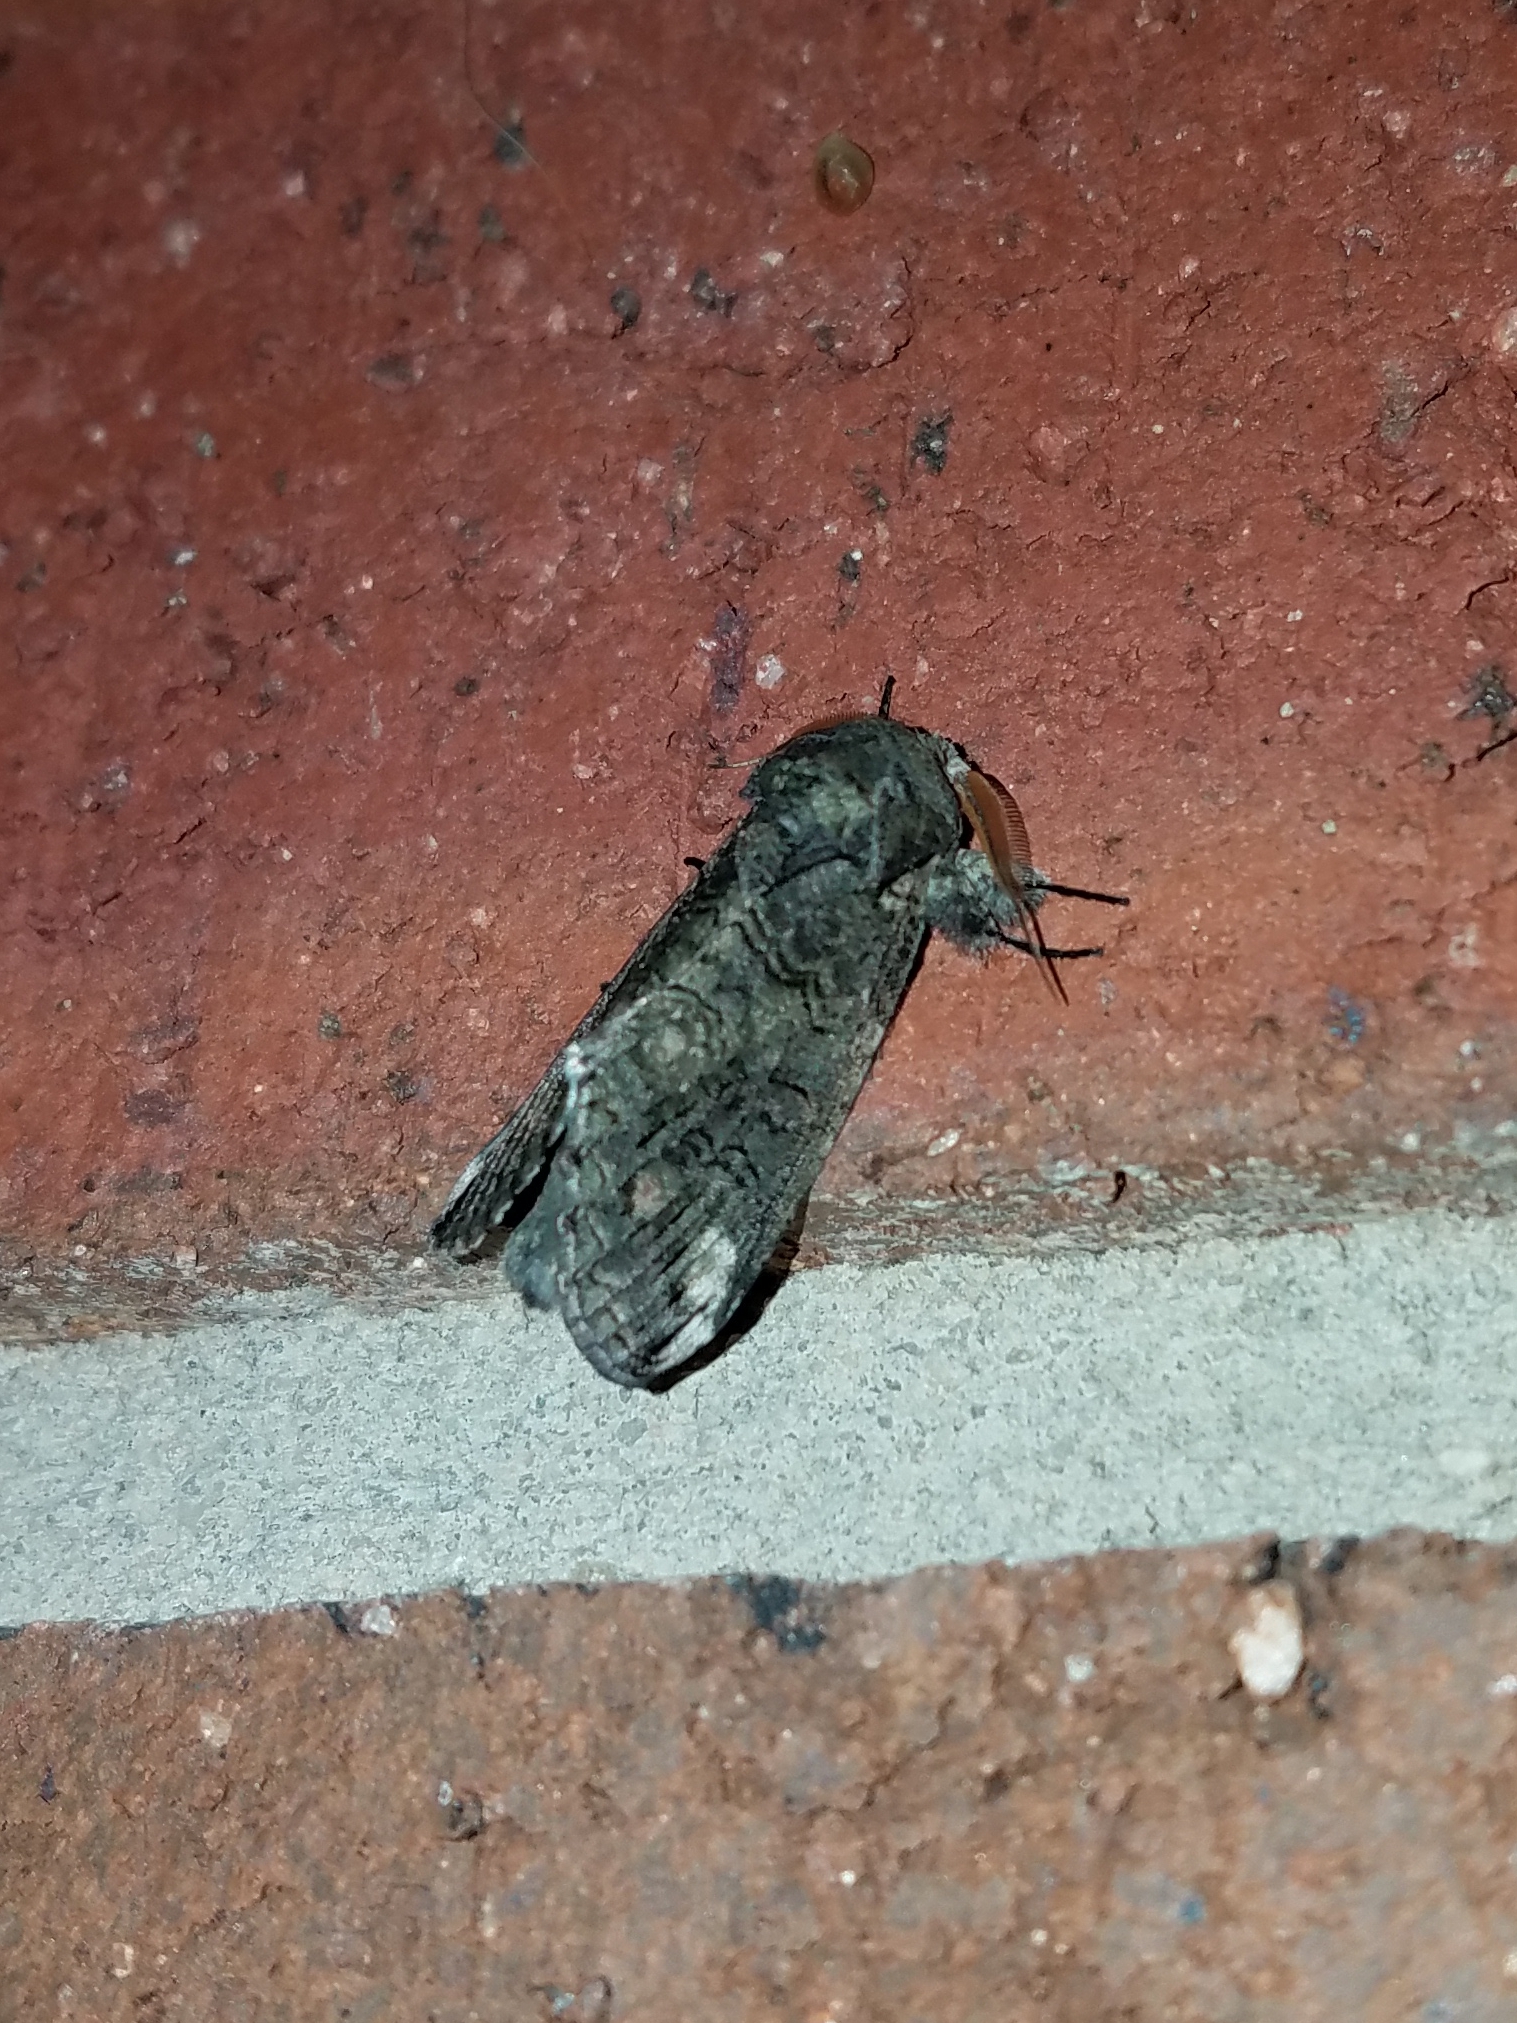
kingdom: Animalia
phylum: Arthropoda
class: Insecta
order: Lepidoptera
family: Notodontidae
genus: Heterocampa
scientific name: Heterocampa obliqua
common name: Oblique heterocampa
